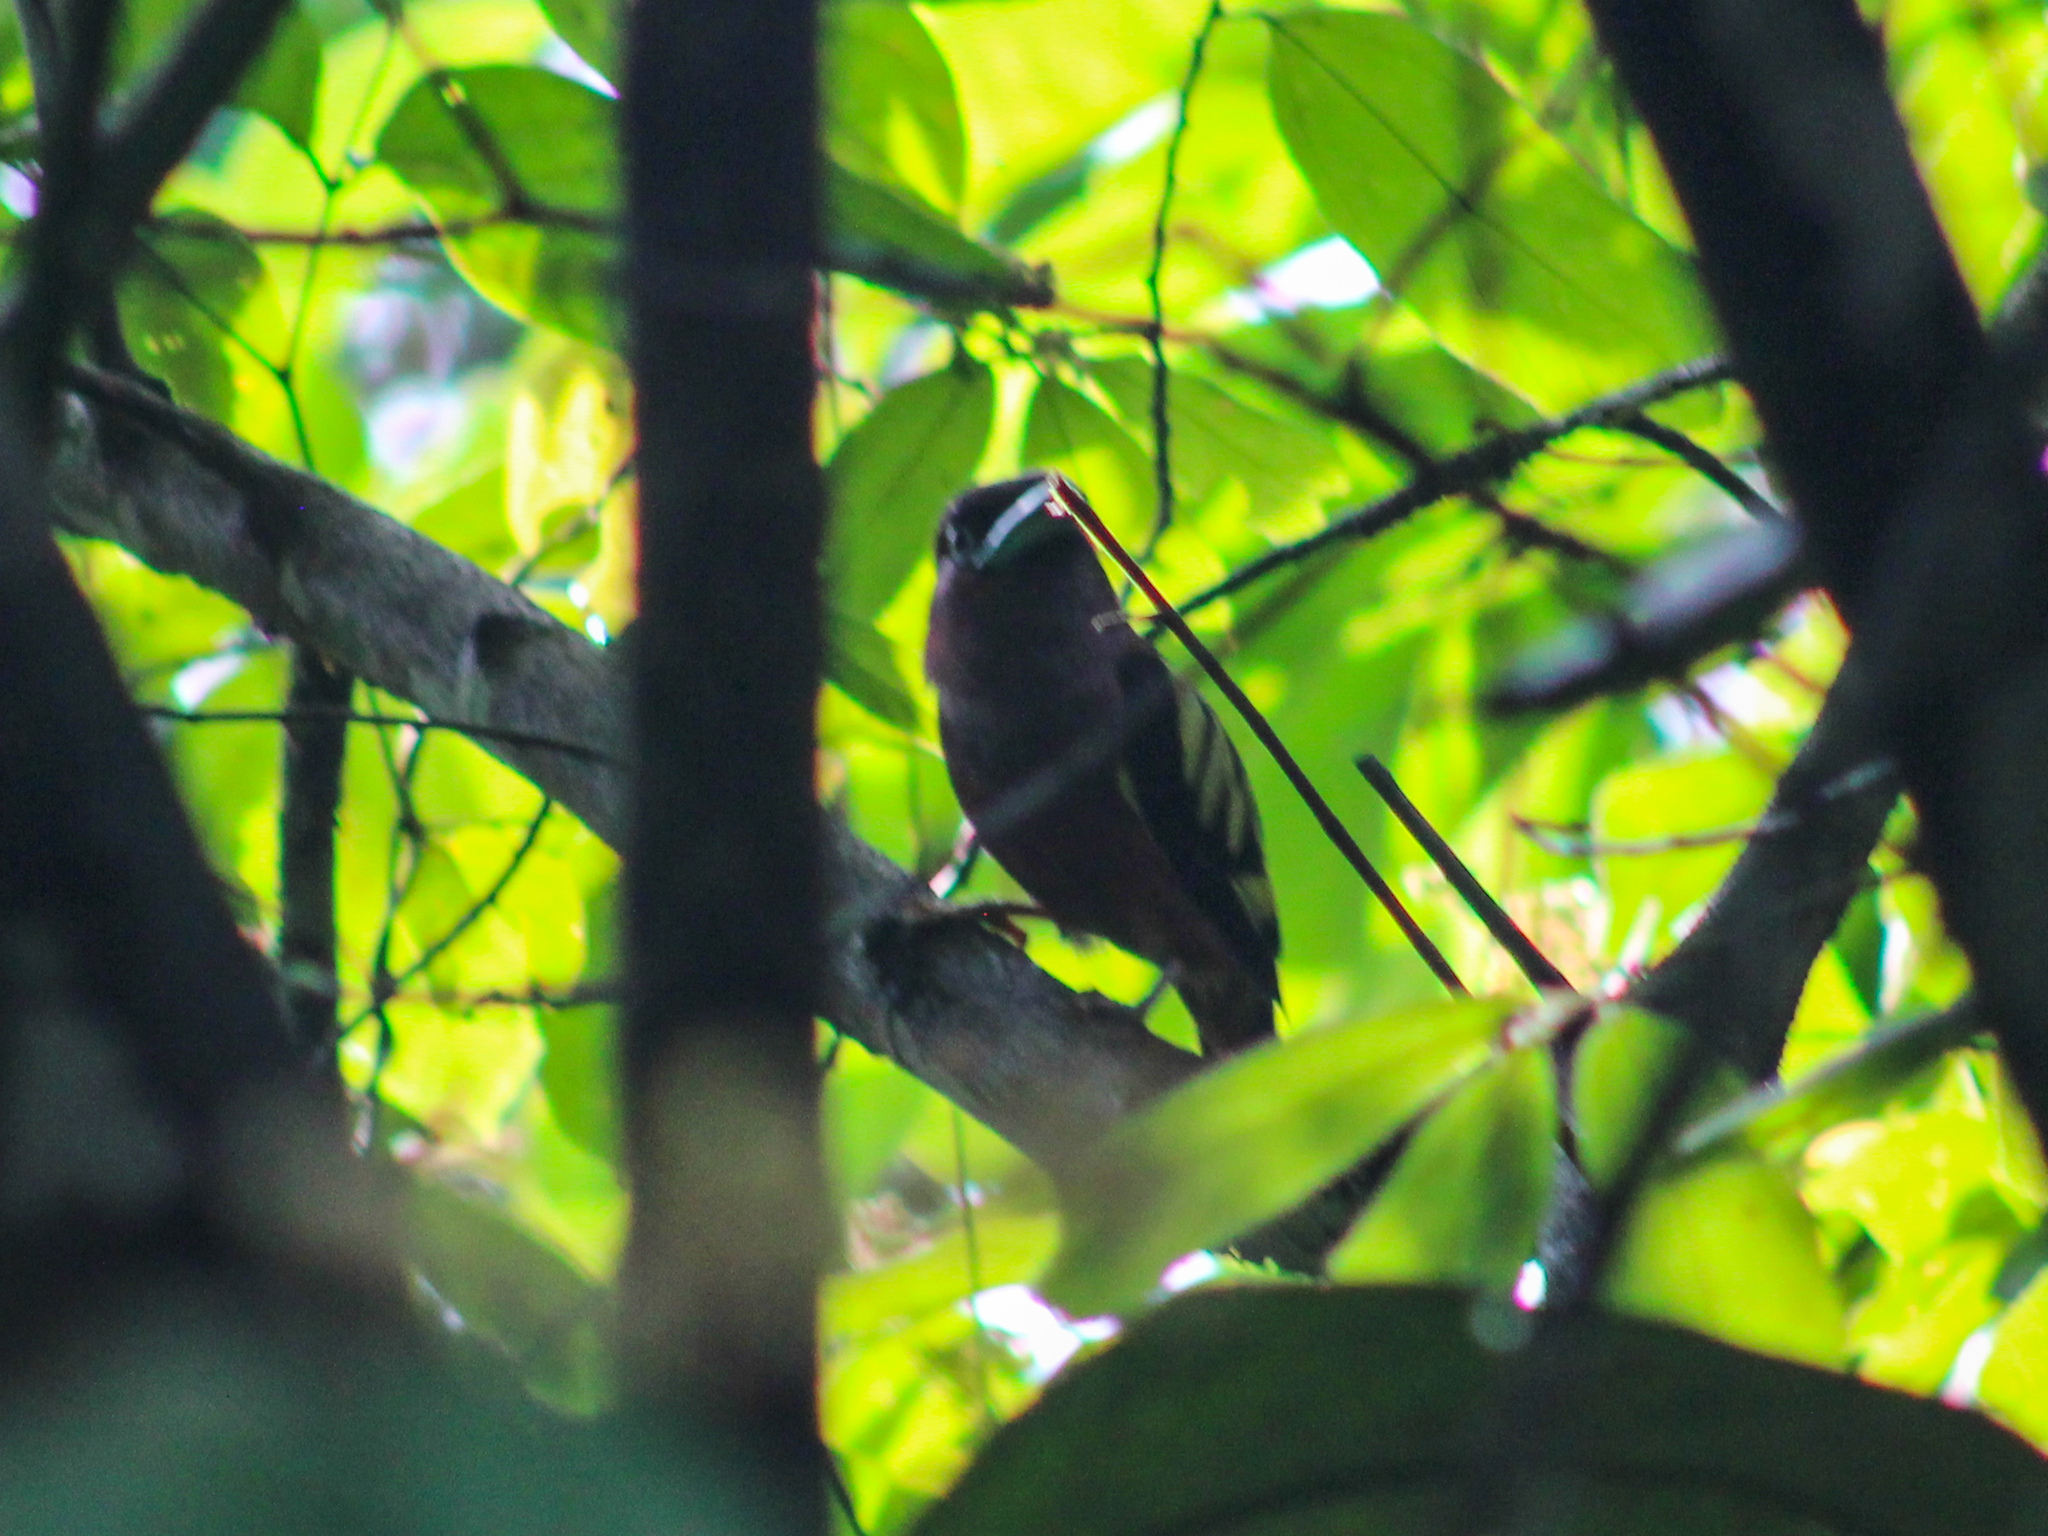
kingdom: Animalia
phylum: Chordata
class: Aves
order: Passeriformes
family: Eurylaimidae
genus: Eurylaimus
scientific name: Eurylaimus javanicus
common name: Banded broadbill
